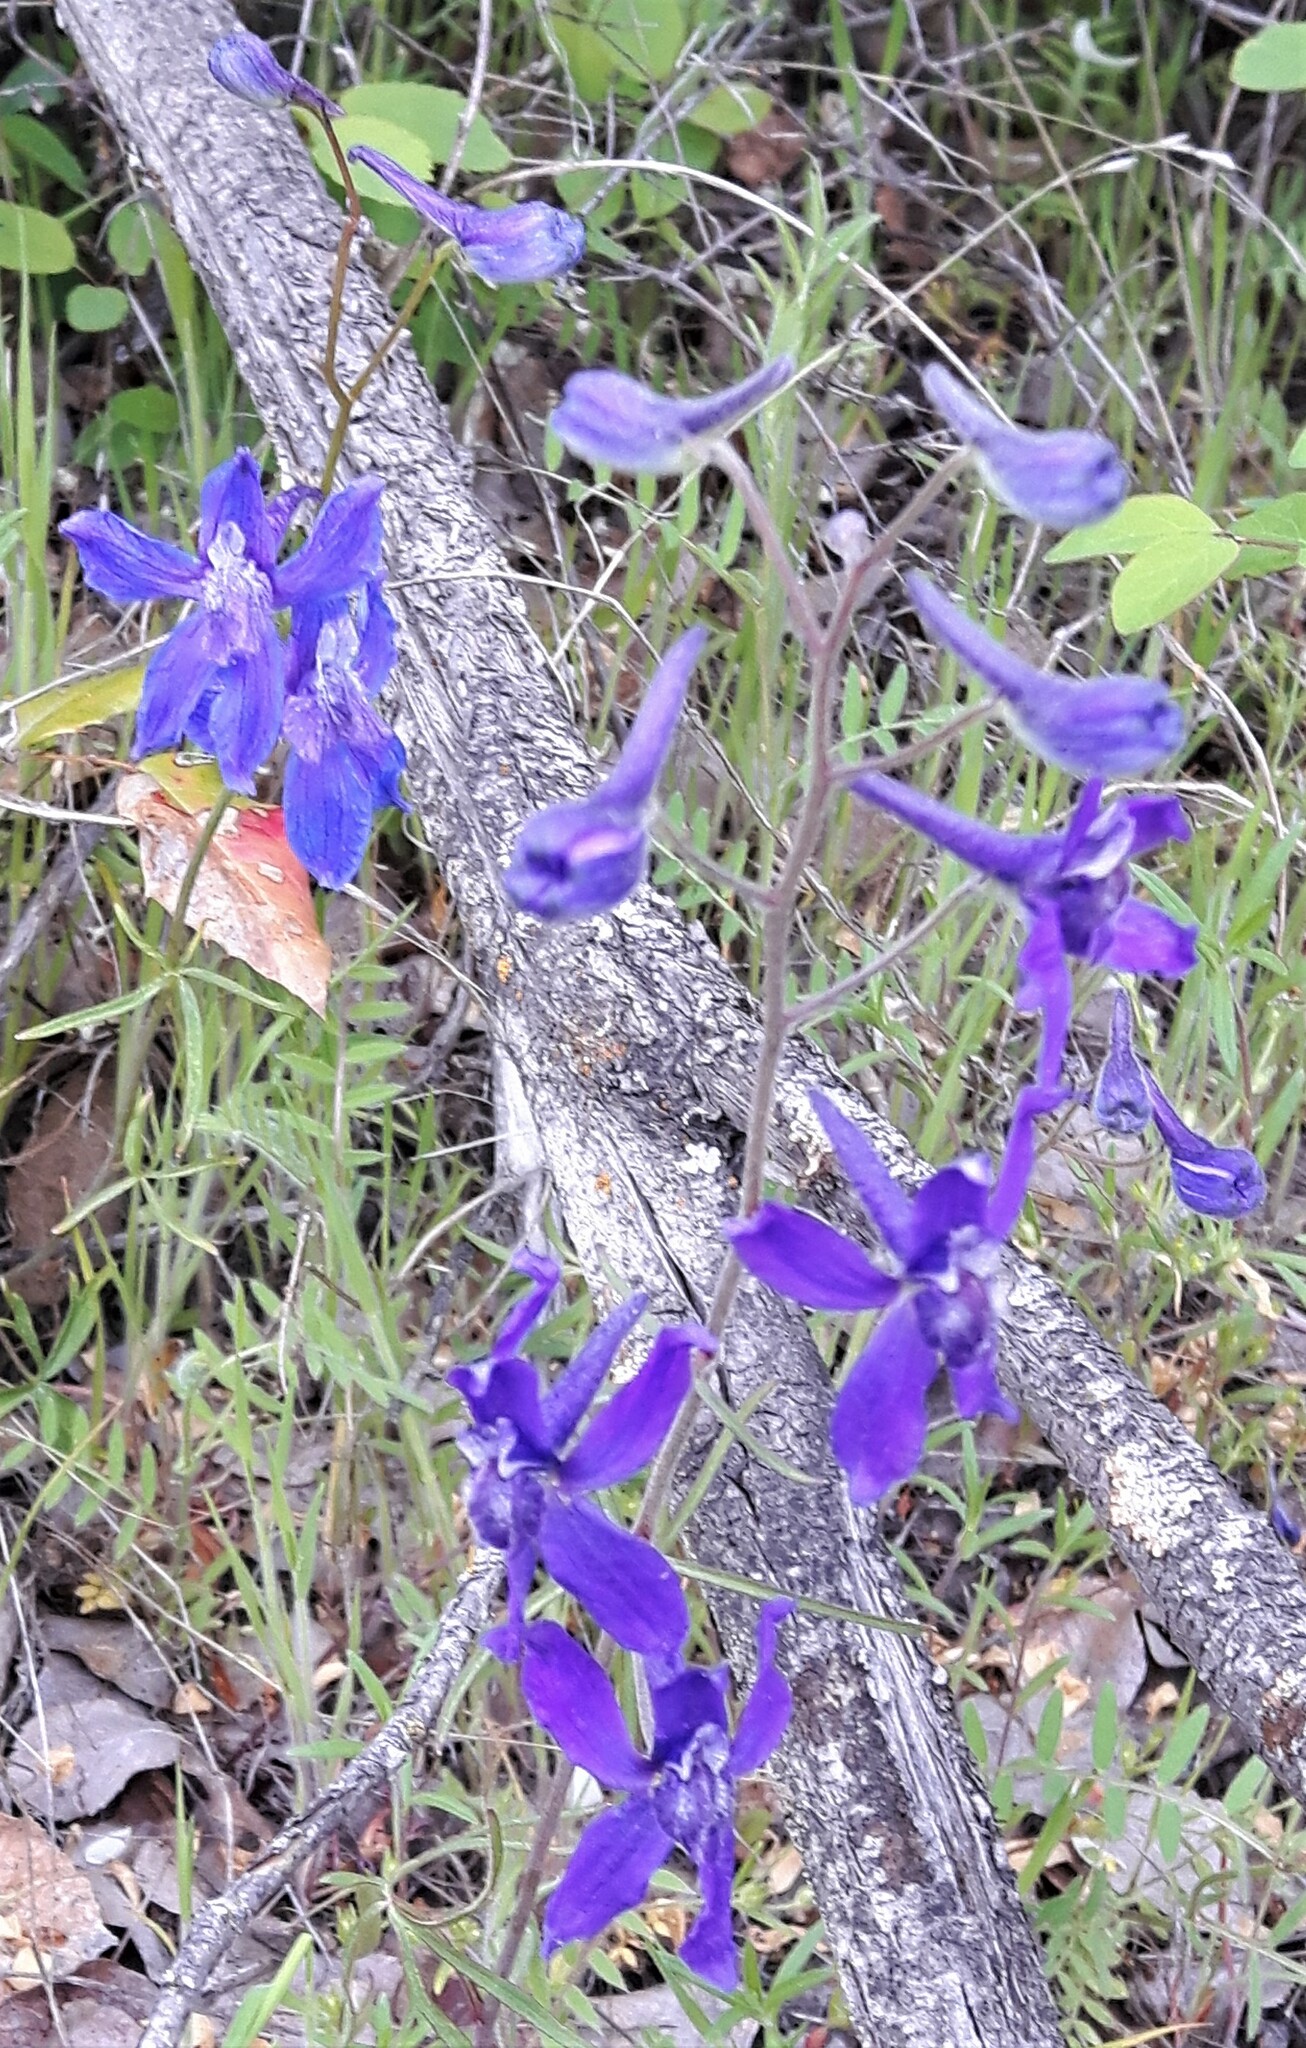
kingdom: Plantae
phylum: Tracheophyta
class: Magnoliopsida
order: Ranunculales
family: Ranunculaceae
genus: Delphinium
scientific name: Delphinium nuttallianum
